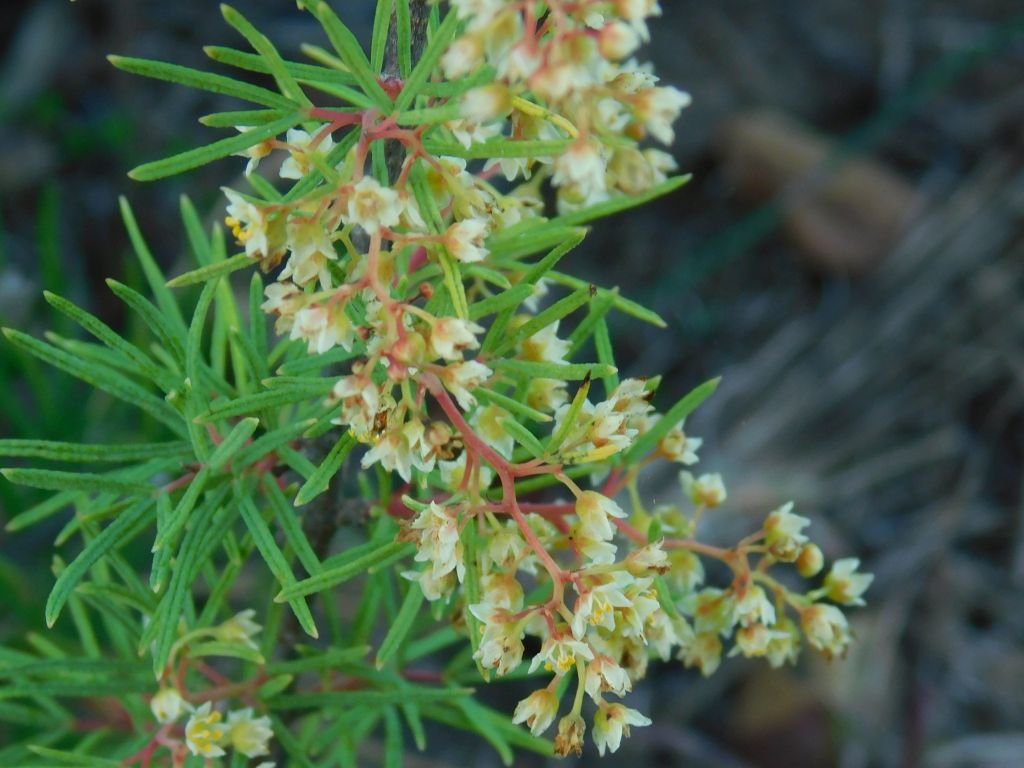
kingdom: Plantae
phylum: Tracheophyta
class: Magnoliopsida
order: Sapindales
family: Anacardiaceae
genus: Searsia
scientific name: Searsia rosmarinifolia
